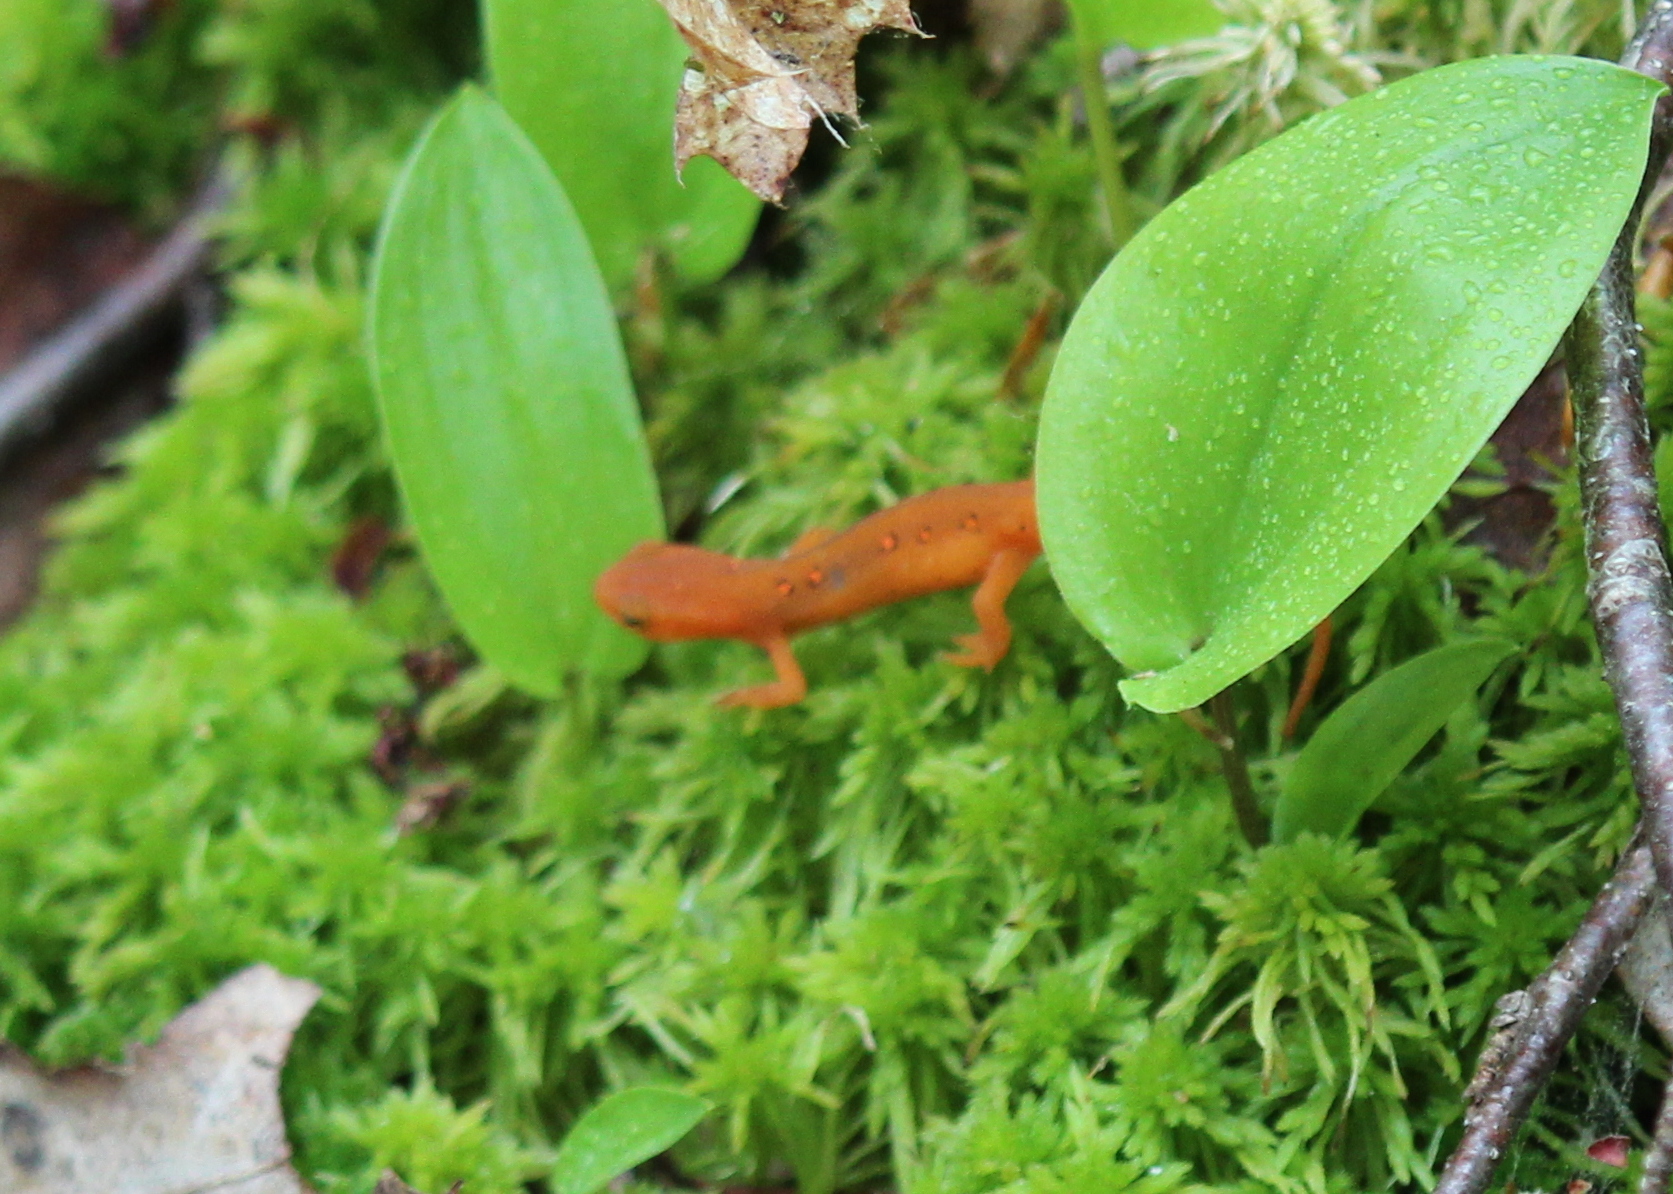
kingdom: Animalia
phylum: Chordata
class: Amphibia
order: Caudata
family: Salamandridae
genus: Notophthalmus
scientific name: Notophthalmus viridescens
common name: Eastern newt
